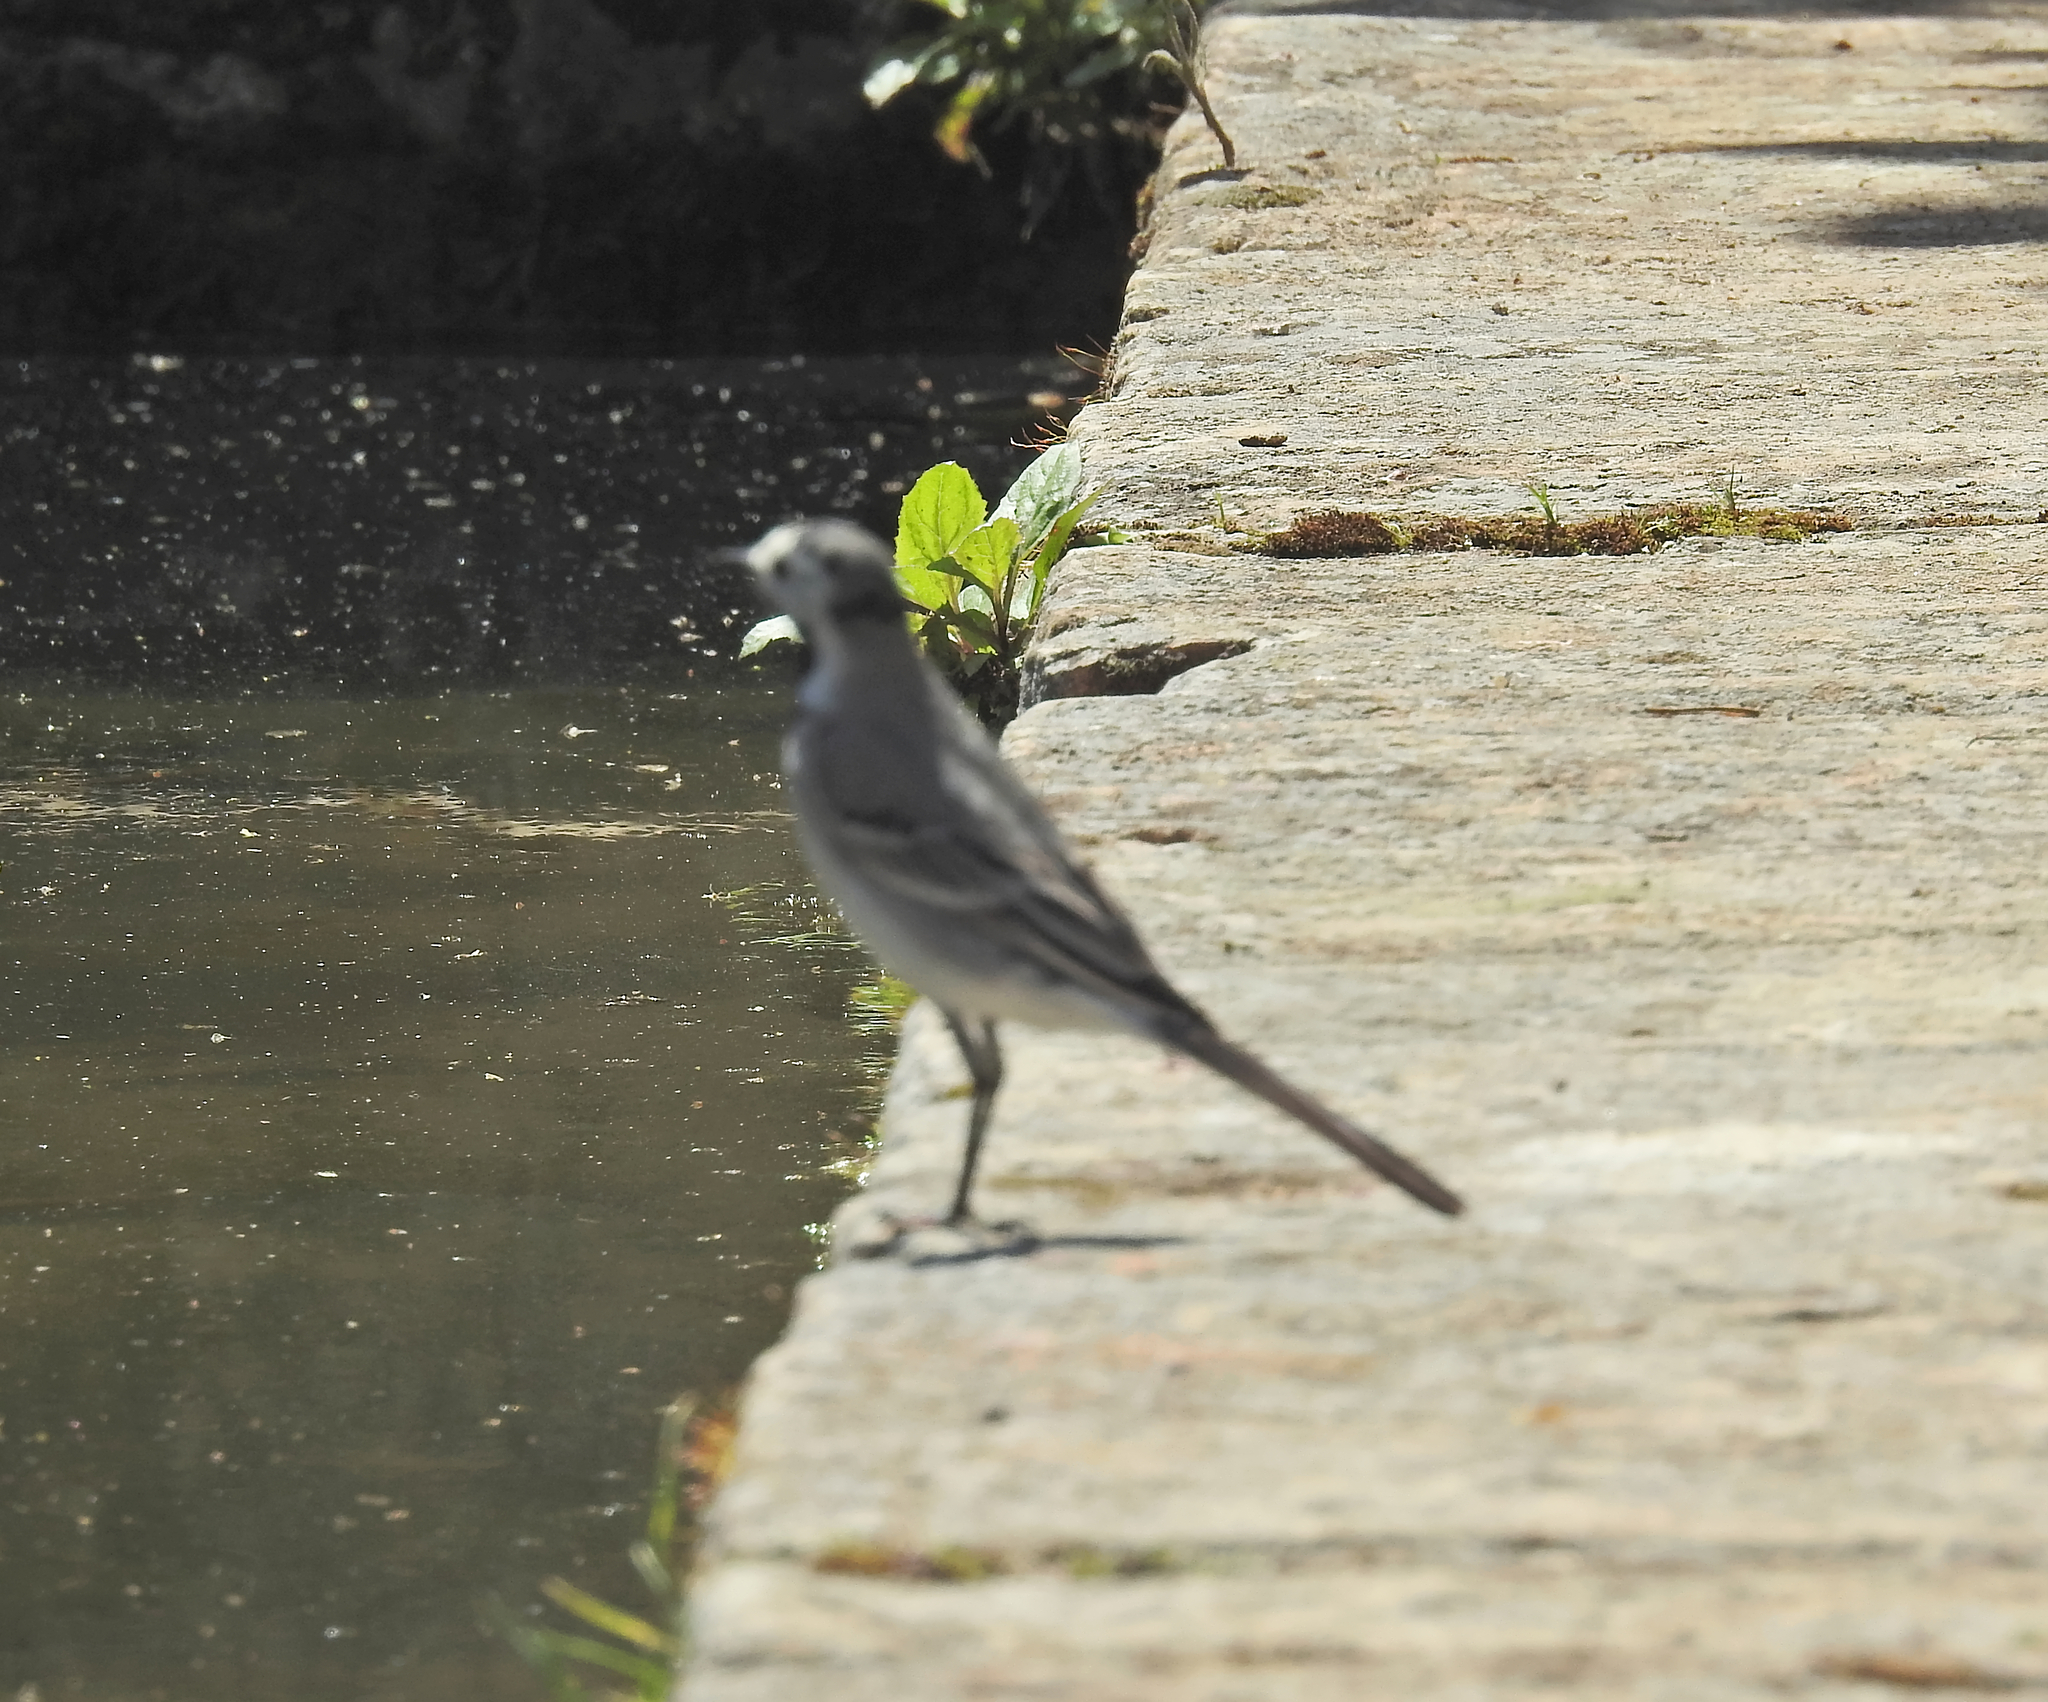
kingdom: Animalia
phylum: Chordata
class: Aves
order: Passeriformes
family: Motacillidae
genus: Motacilla
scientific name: Motacilla alba
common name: White wagtail
